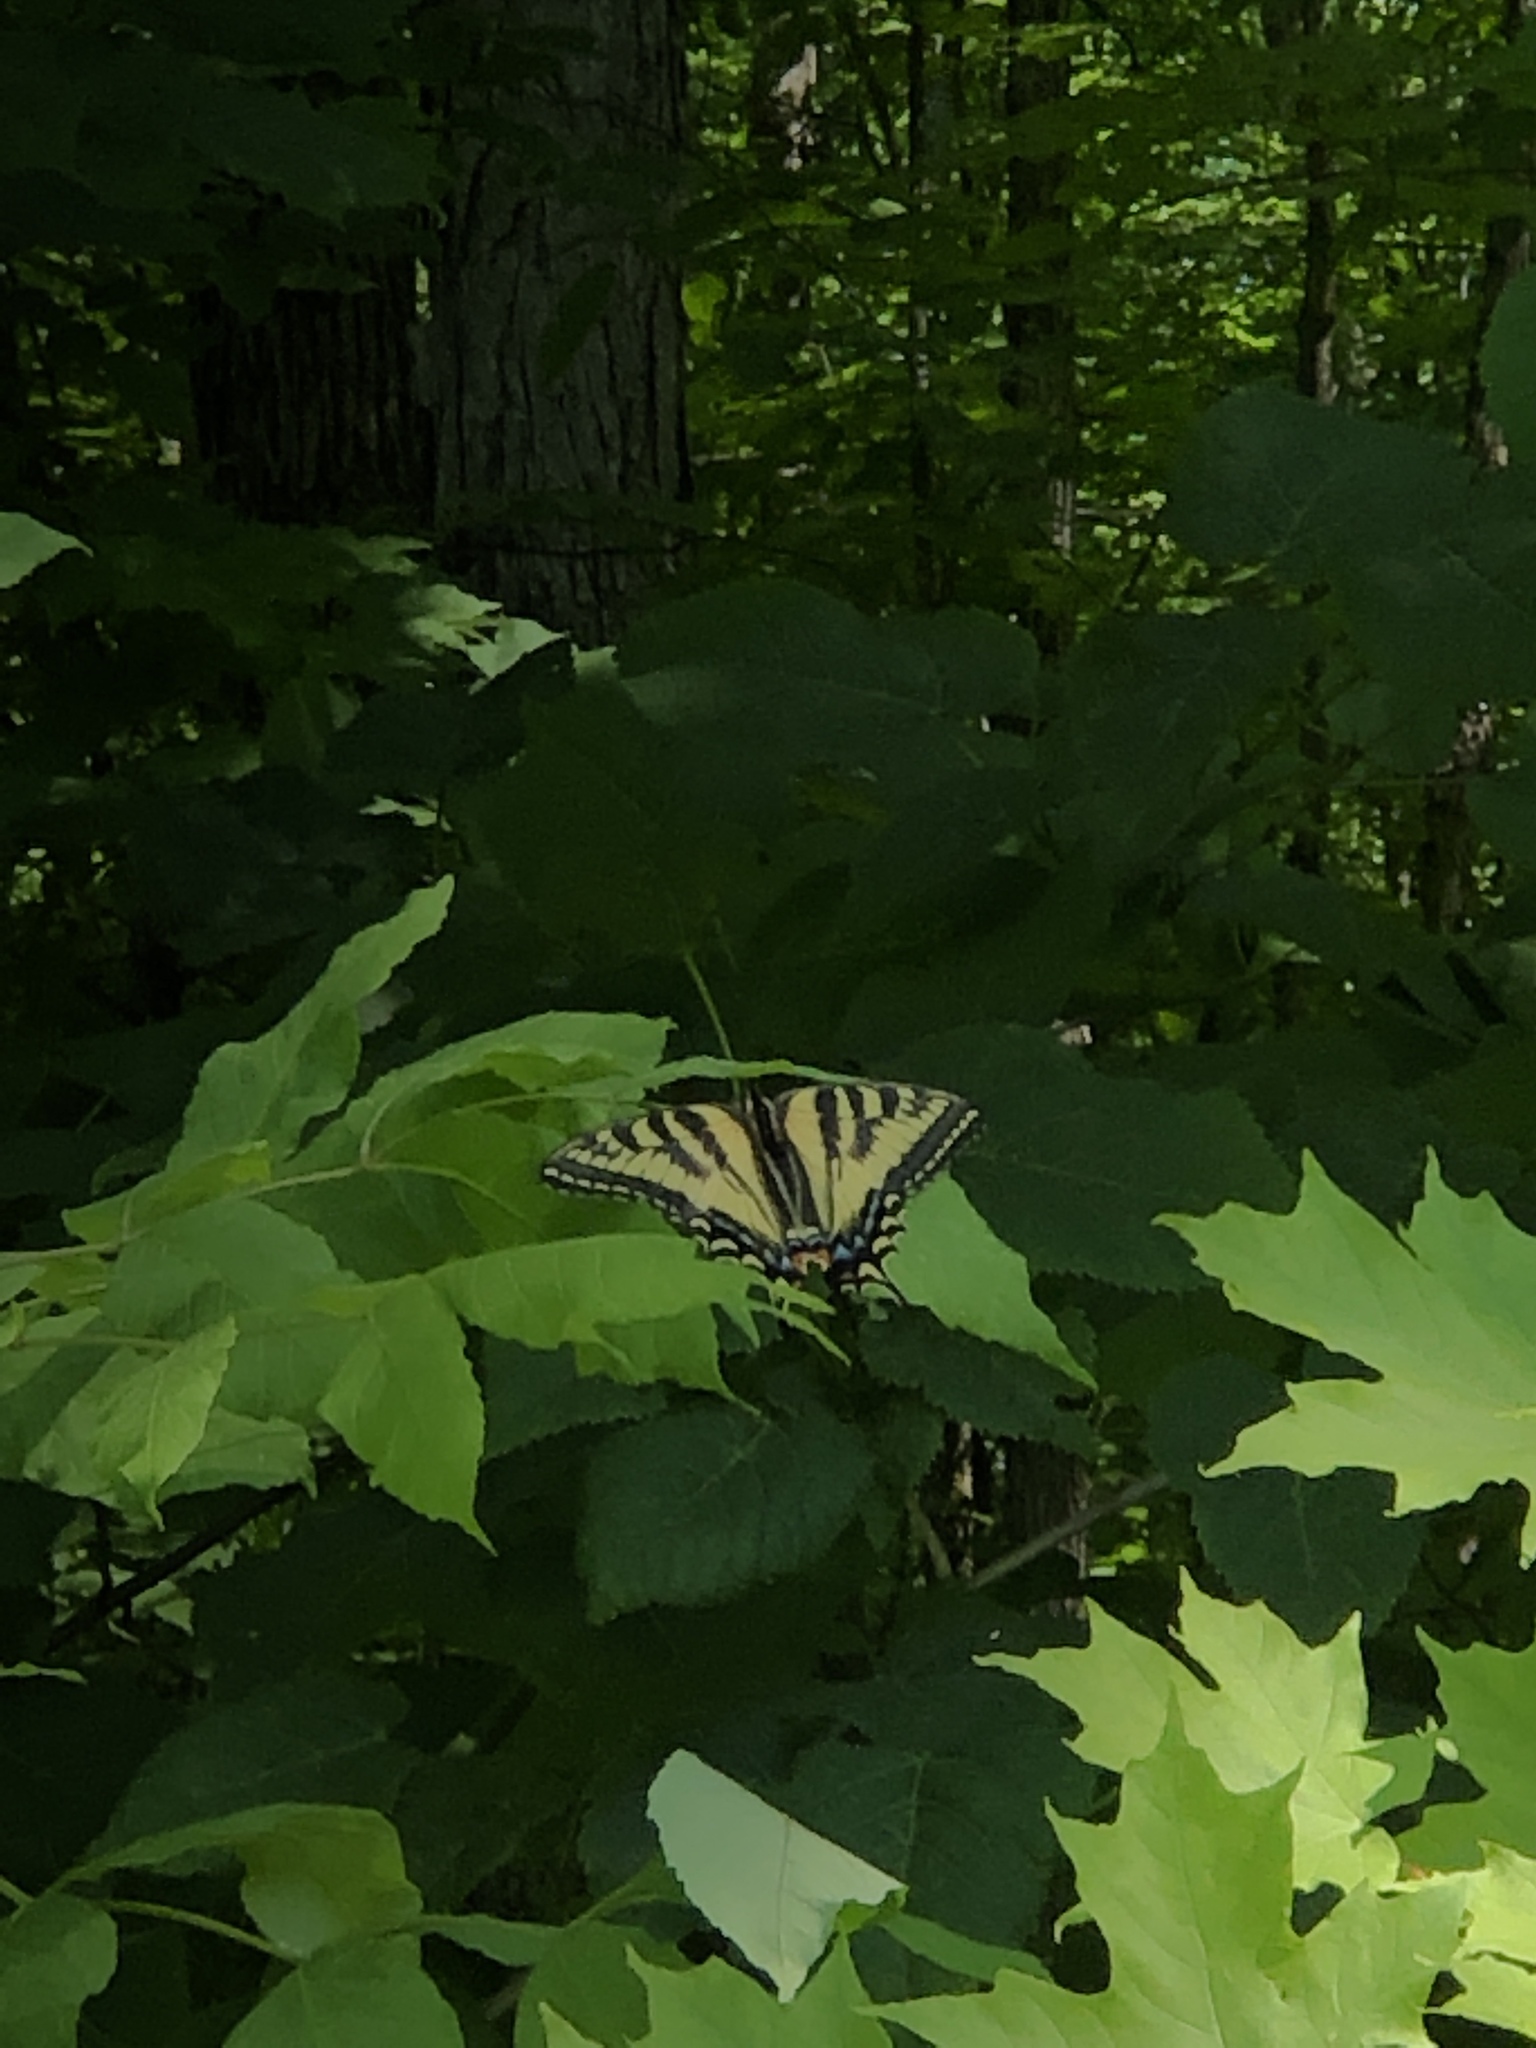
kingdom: Animalia
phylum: Arthropoda
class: Insecta
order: Lepidoptera
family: Papilionidae
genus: Papilio
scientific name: Papilio canadensis
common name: Canadian tiger swallowtail
